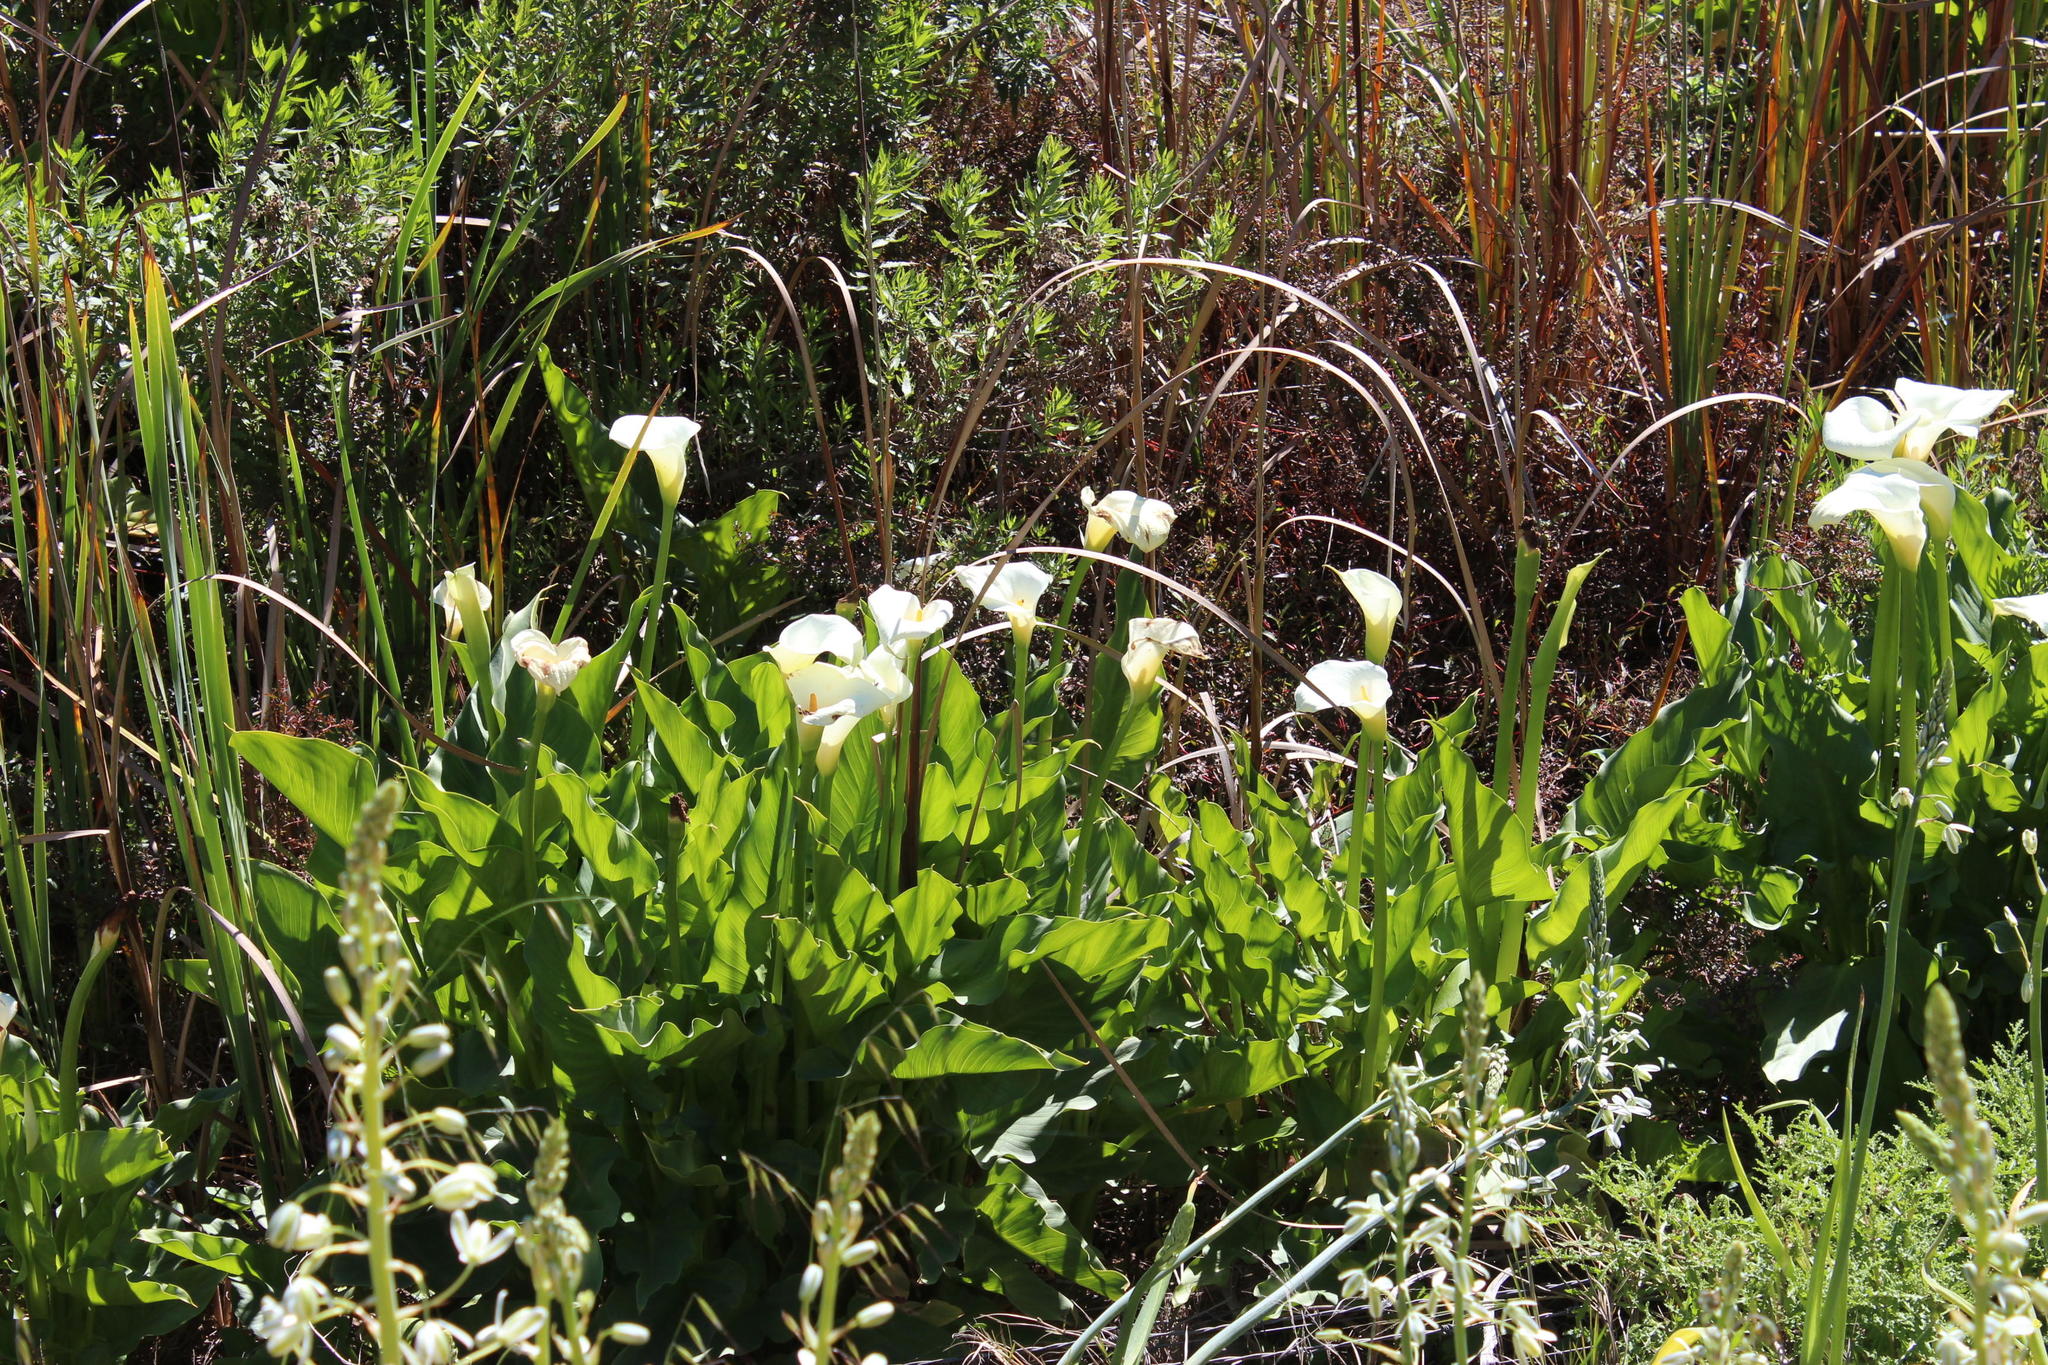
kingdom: Plantae
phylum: Tracheophyta
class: Liliopsida
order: Alismatales
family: Araceae
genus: Zantedeschia
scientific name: Zantedeschia aethiopica
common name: Altar-lily
